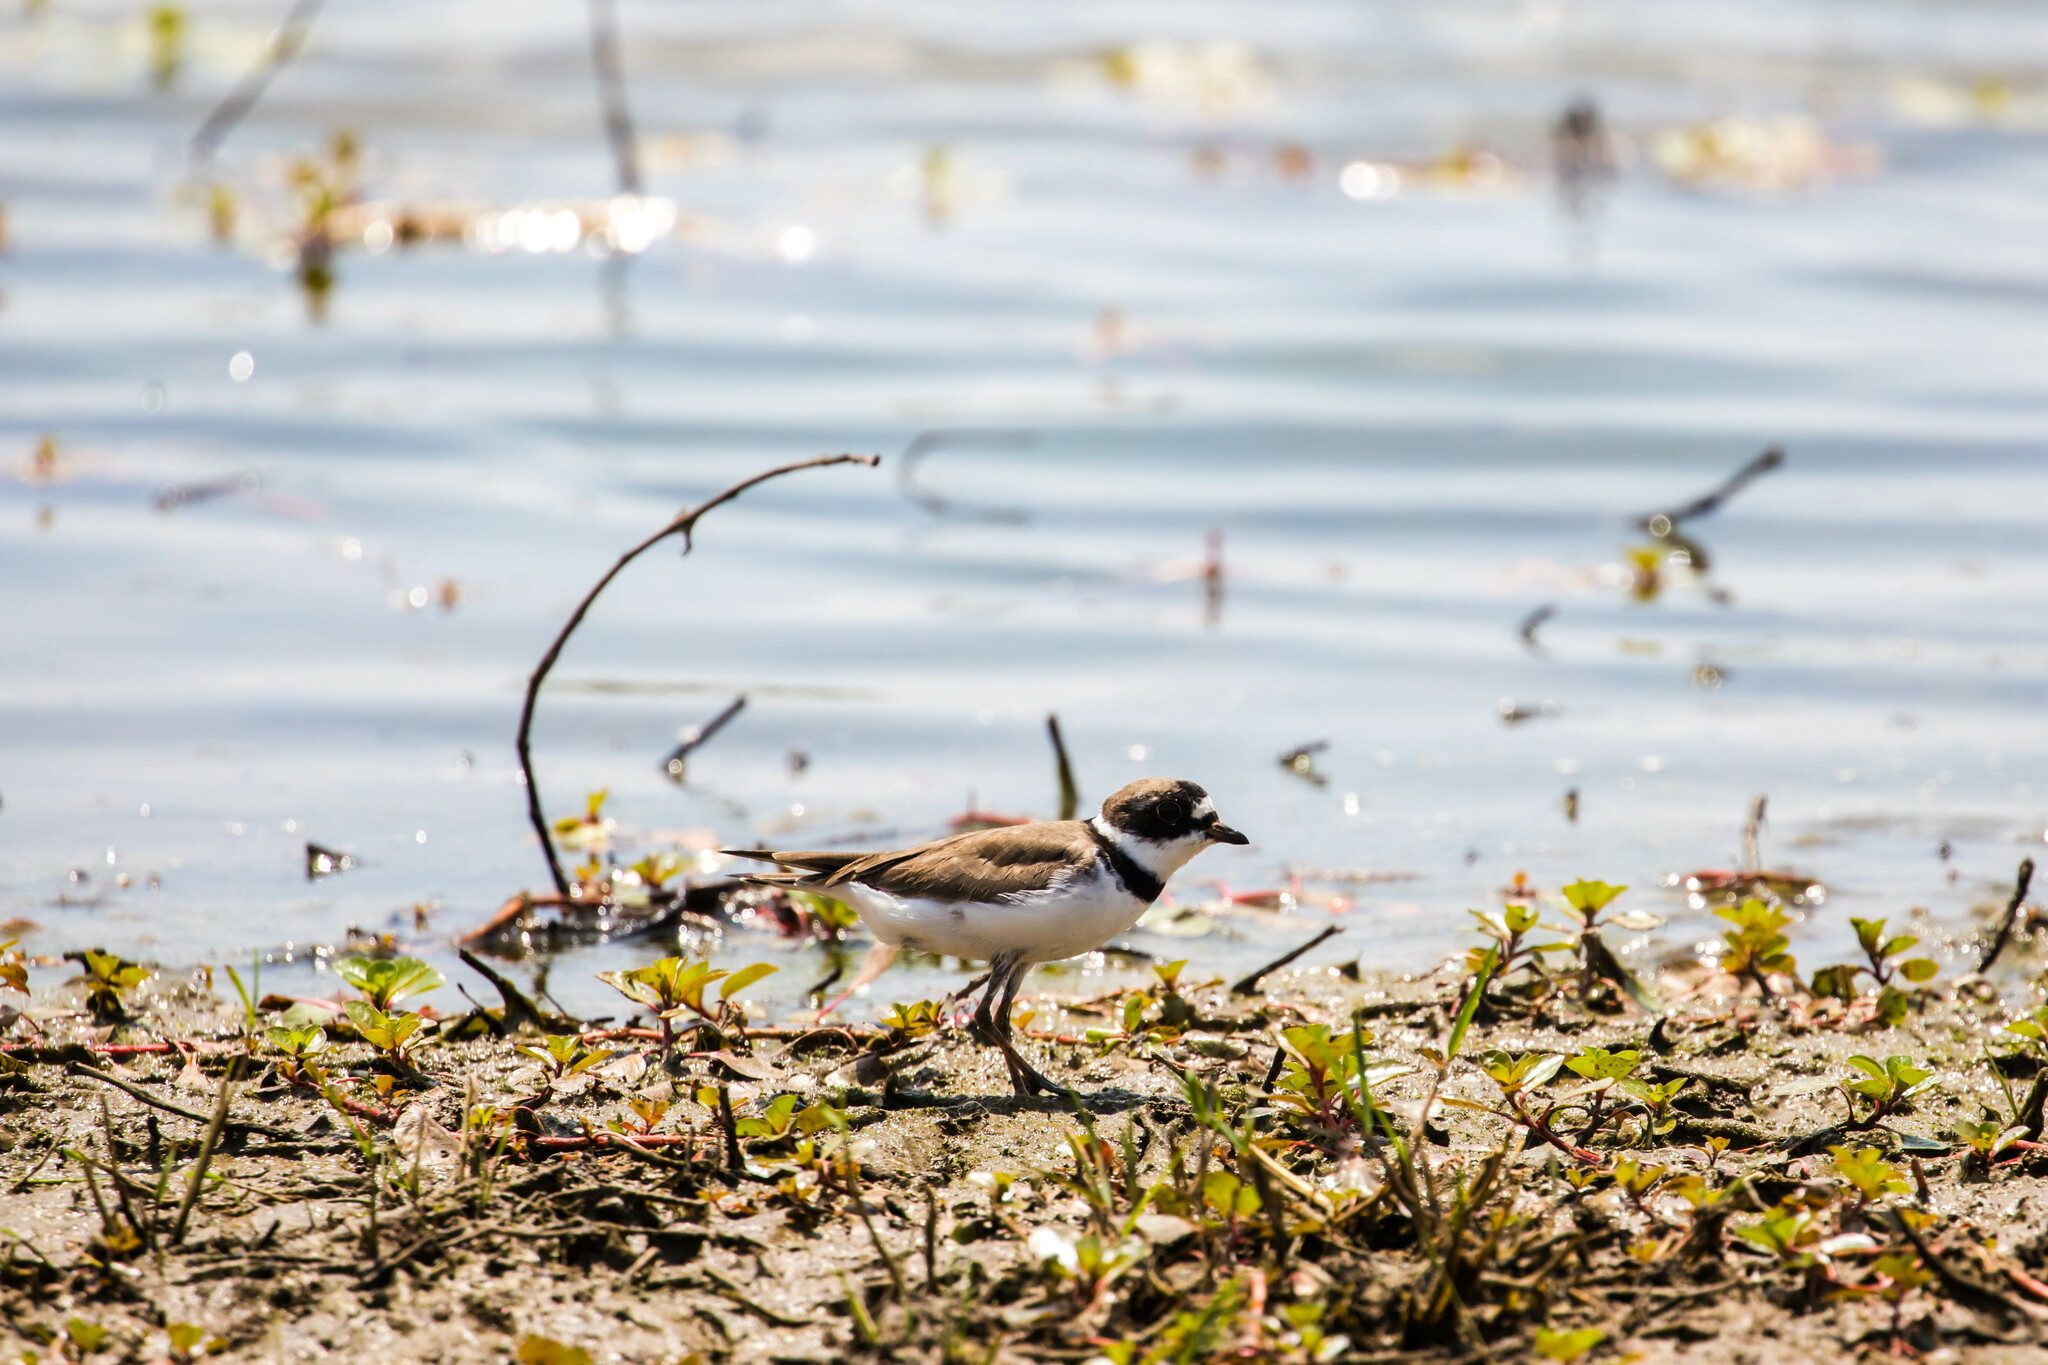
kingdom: Animalia
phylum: Chordata
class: Aves
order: Charadriiformes
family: Charadriidae
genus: Charadrius
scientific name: Charadrius semipalmatus
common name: Semipalmated plover
